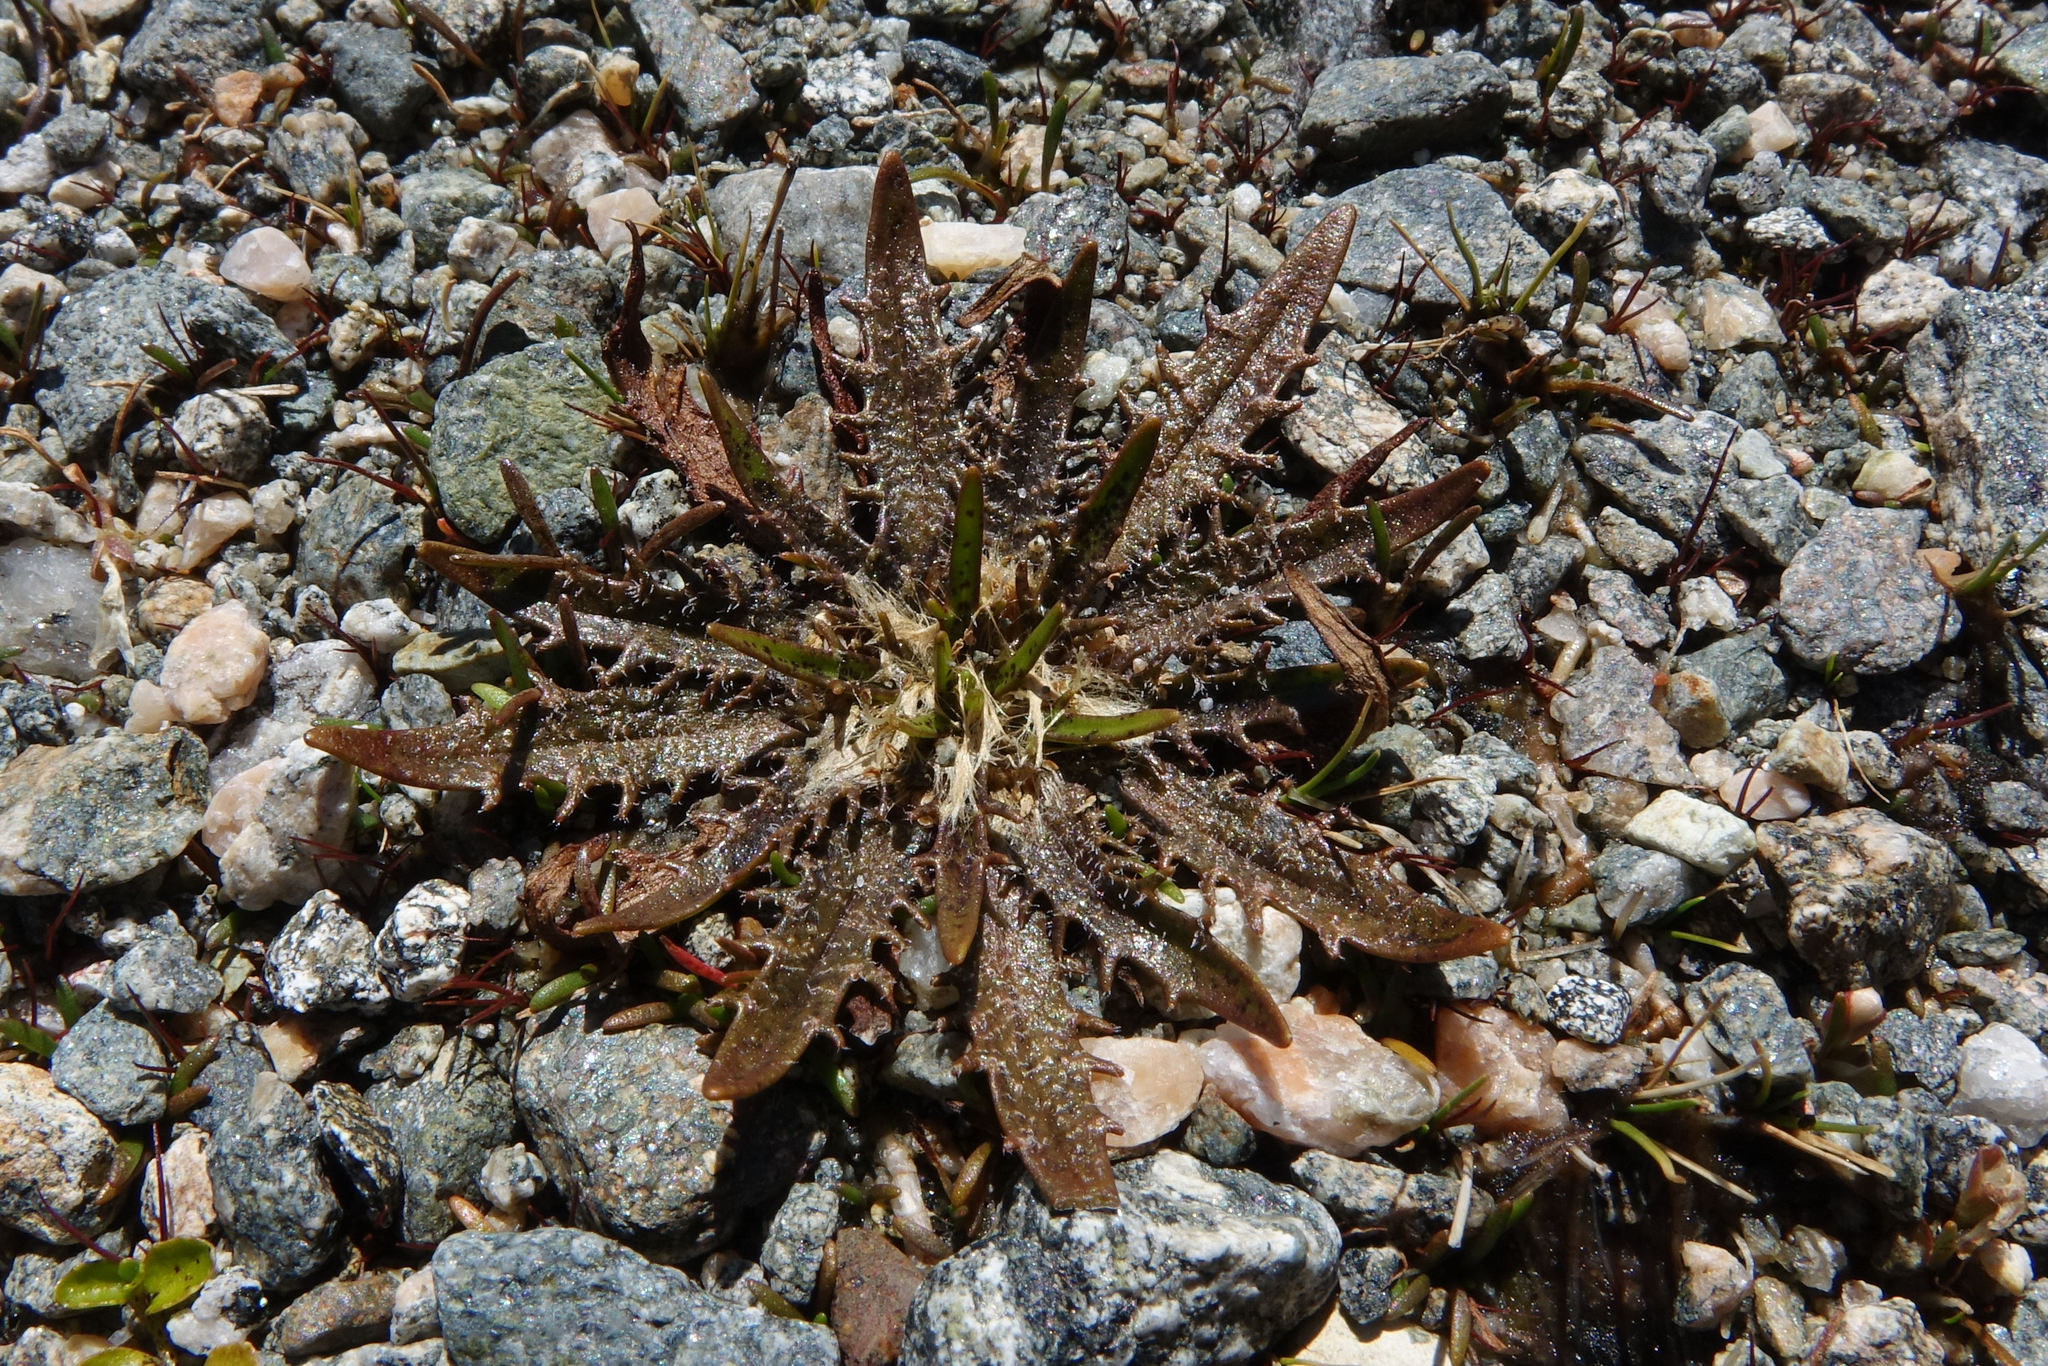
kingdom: Plantae
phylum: Tracheophyta
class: Magnoliopsida
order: Lamiales
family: Plantaginaceae
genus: Plantago
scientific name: Plantago triandra
